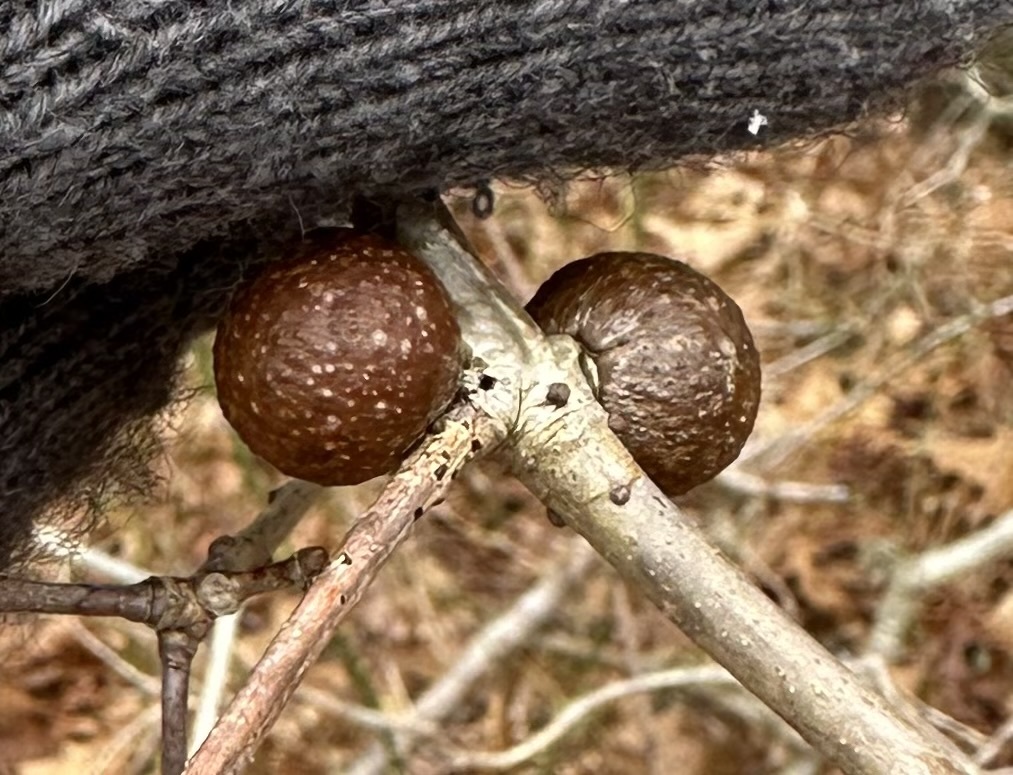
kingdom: Animalia
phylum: Arthropoda
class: Insecta
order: Hymenoptera
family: Cynipidae
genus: Disholcaspis
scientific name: Disholcaspis quercusglobulus
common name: Round bullet gall wasp
